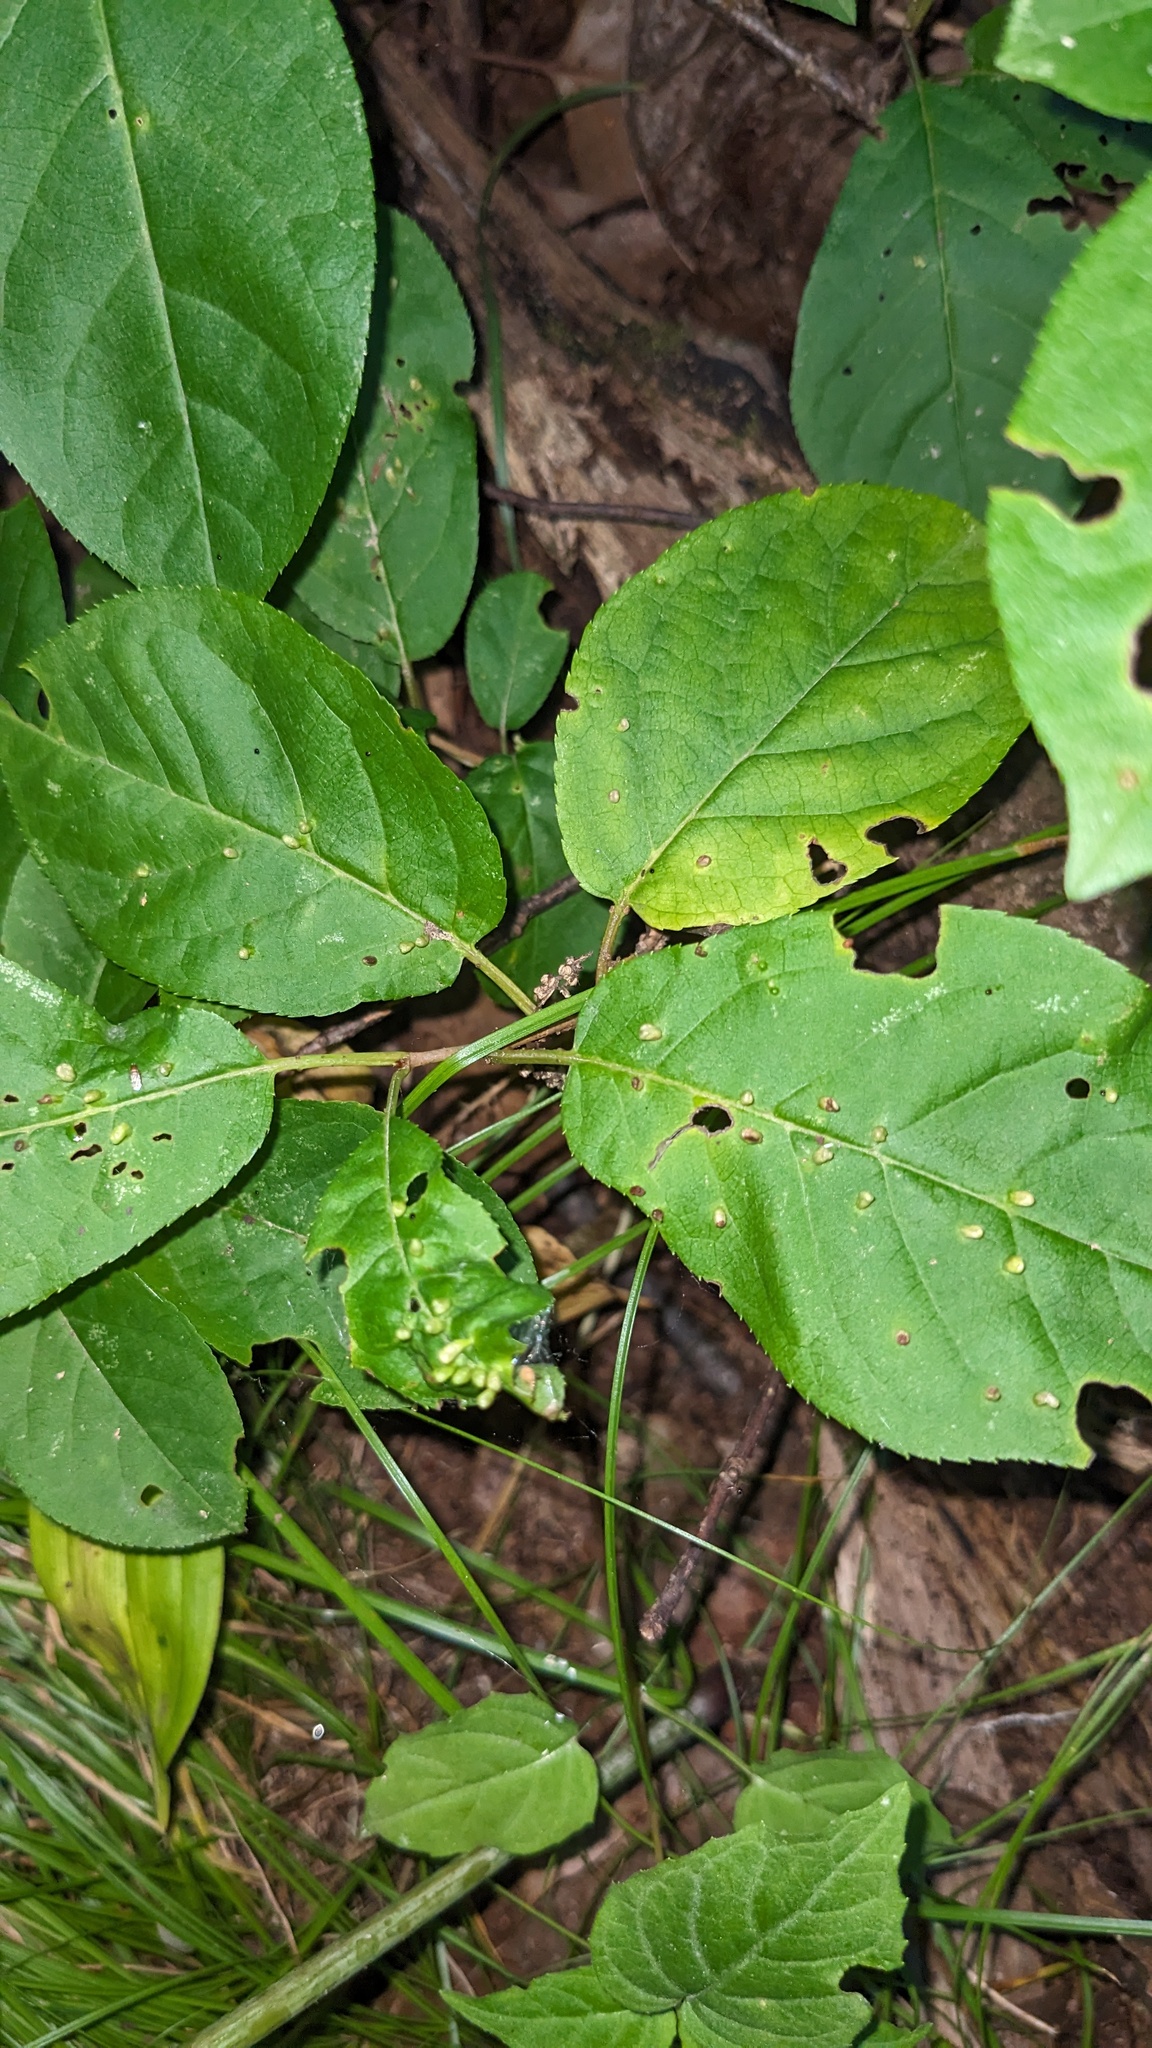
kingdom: Animalia
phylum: Arthropoda
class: Arachnida
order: Trombidiformes
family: Eriophyidae
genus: Eriophyes
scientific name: Eriophyes emarginatae
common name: Plum leaf gall mite
